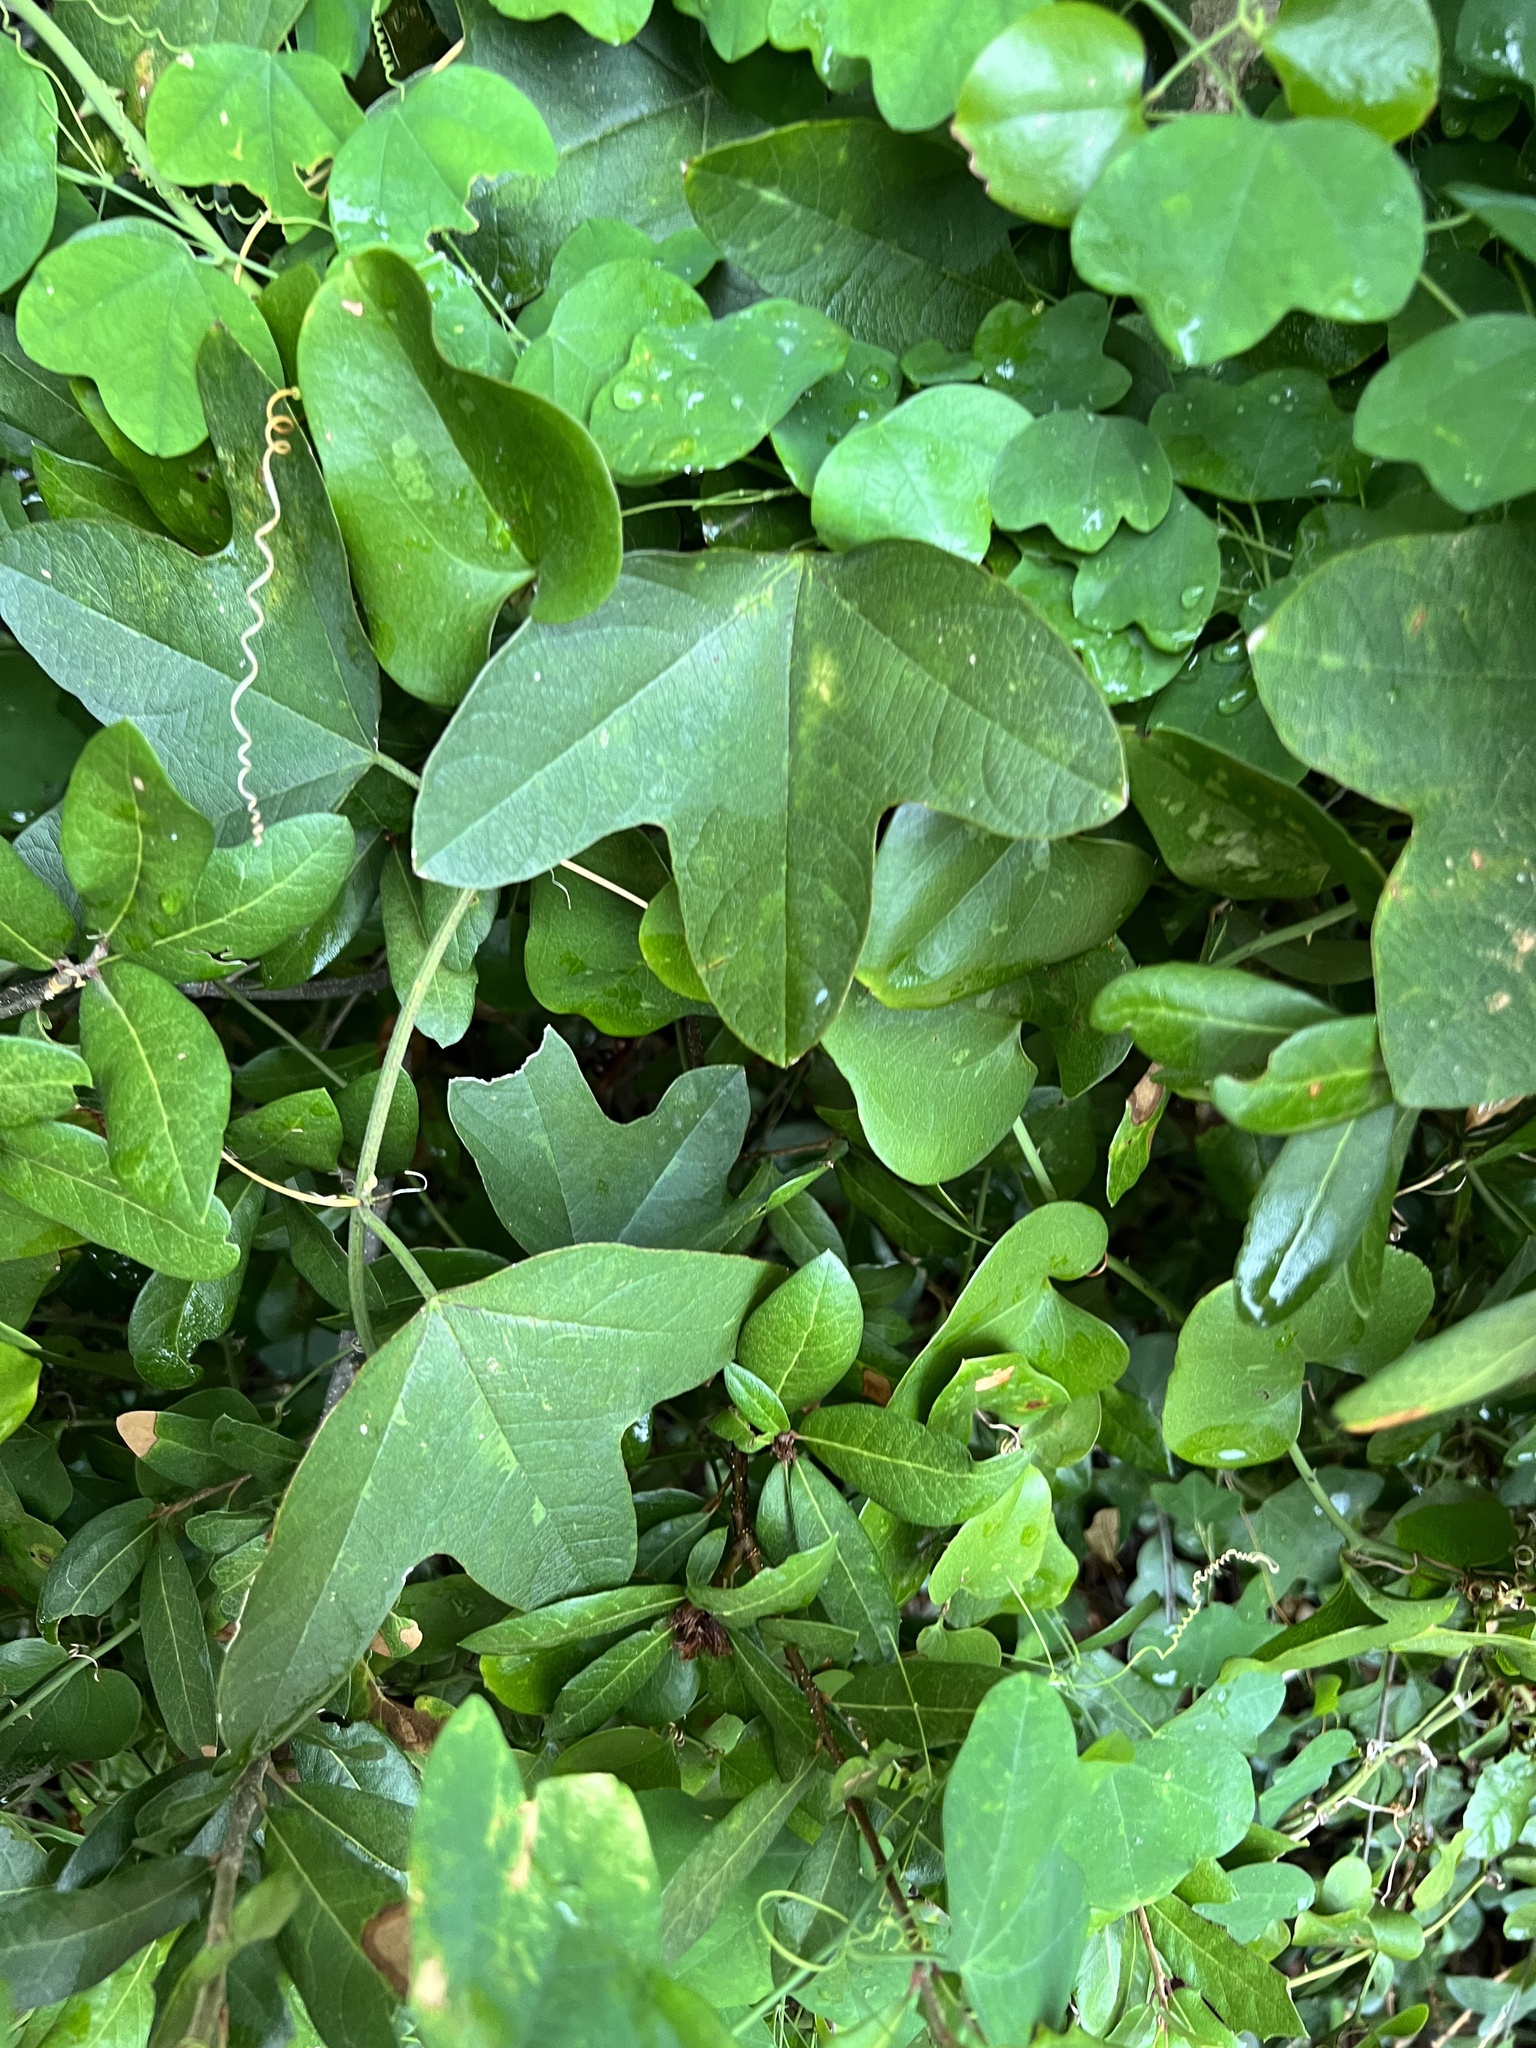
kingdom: Plantae
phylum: Tracheophyta
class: Magnoliopsida
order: Malpighiales
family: Passifloraceae
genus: Passiflora
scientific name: Passiflora lutea
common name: Yellow passionflower
